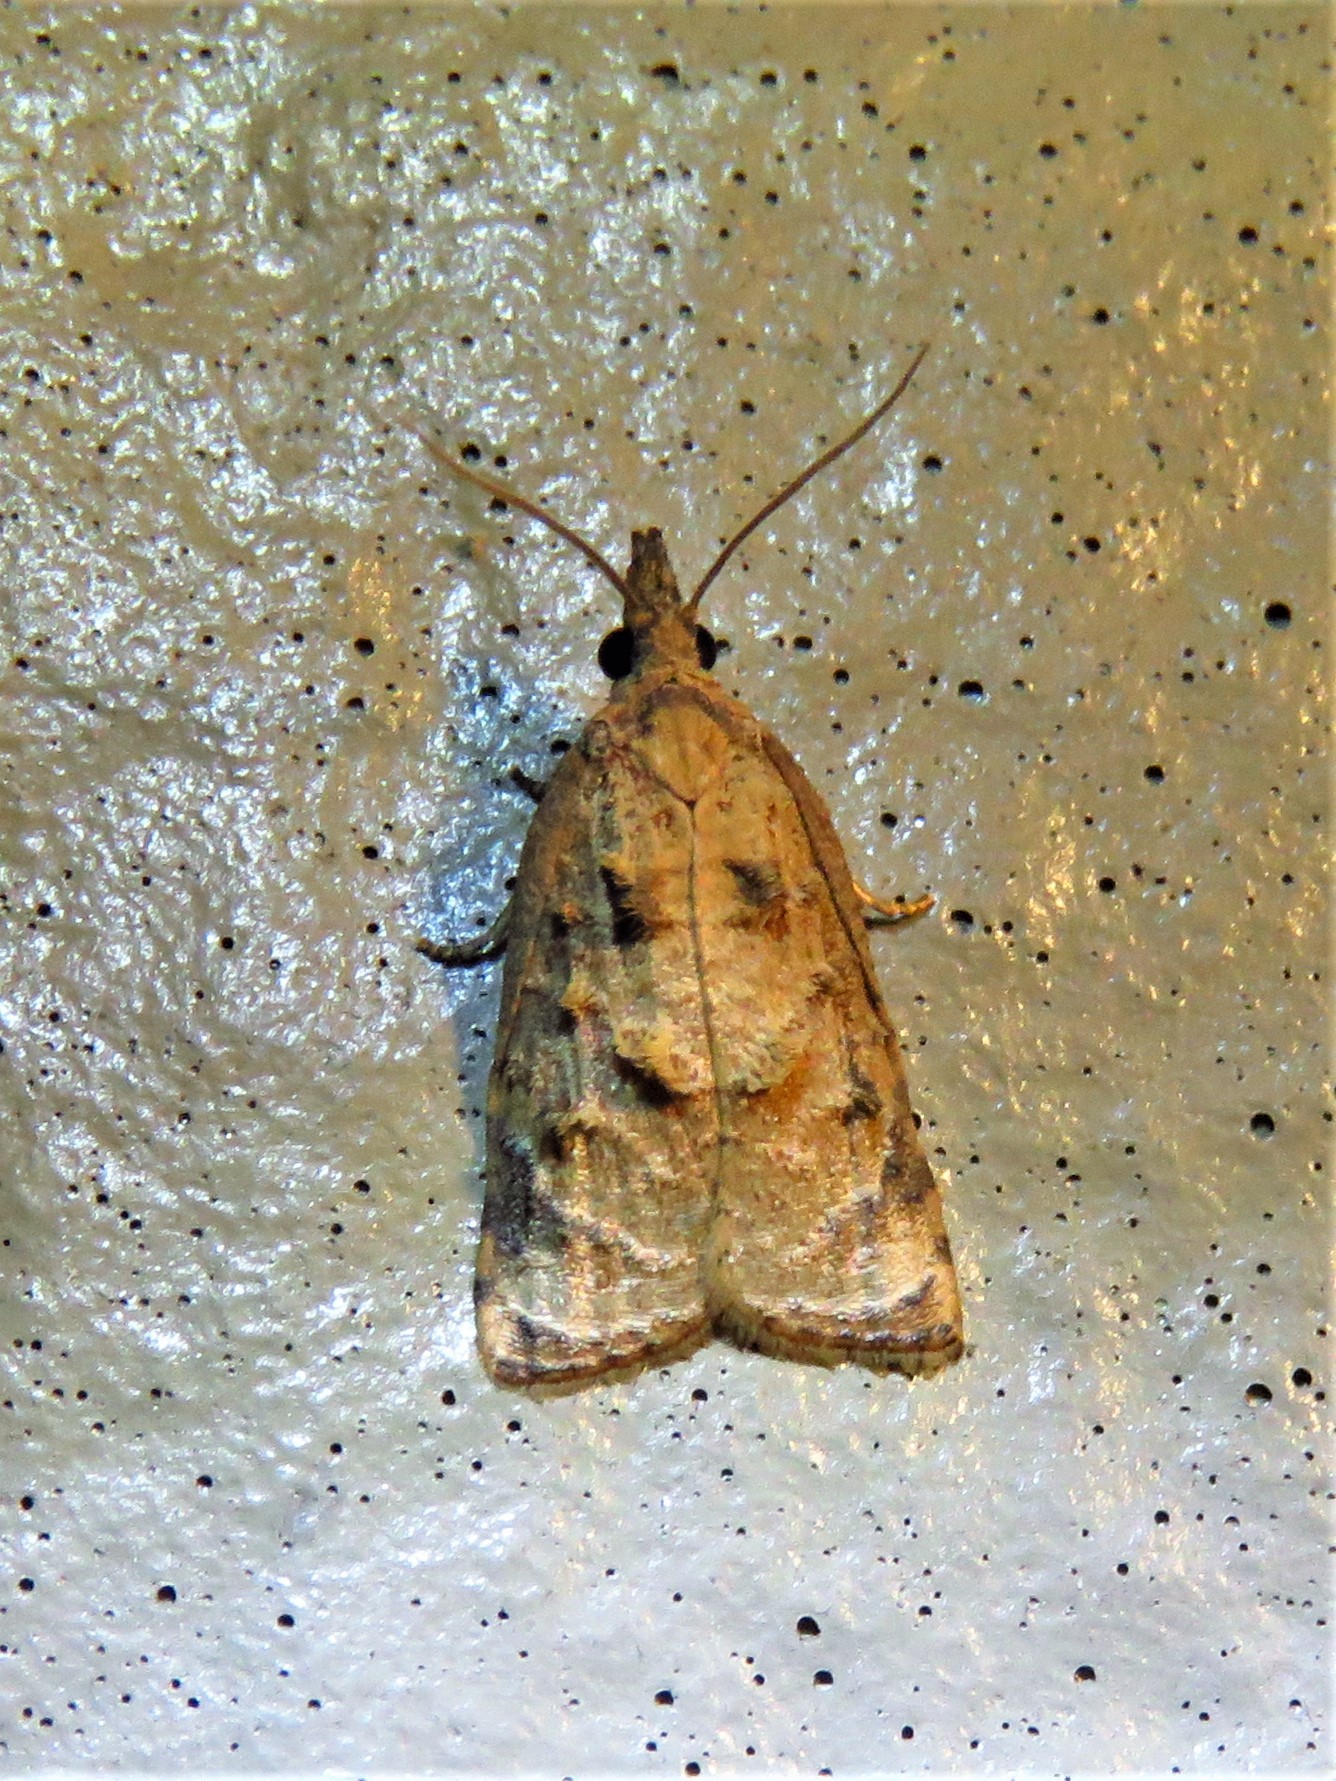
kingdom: Animalia
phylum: Arthropoda
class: Insecta
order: Lepidoptera
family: Tortricidae
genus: Platynota
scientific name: Platynota rostrana
